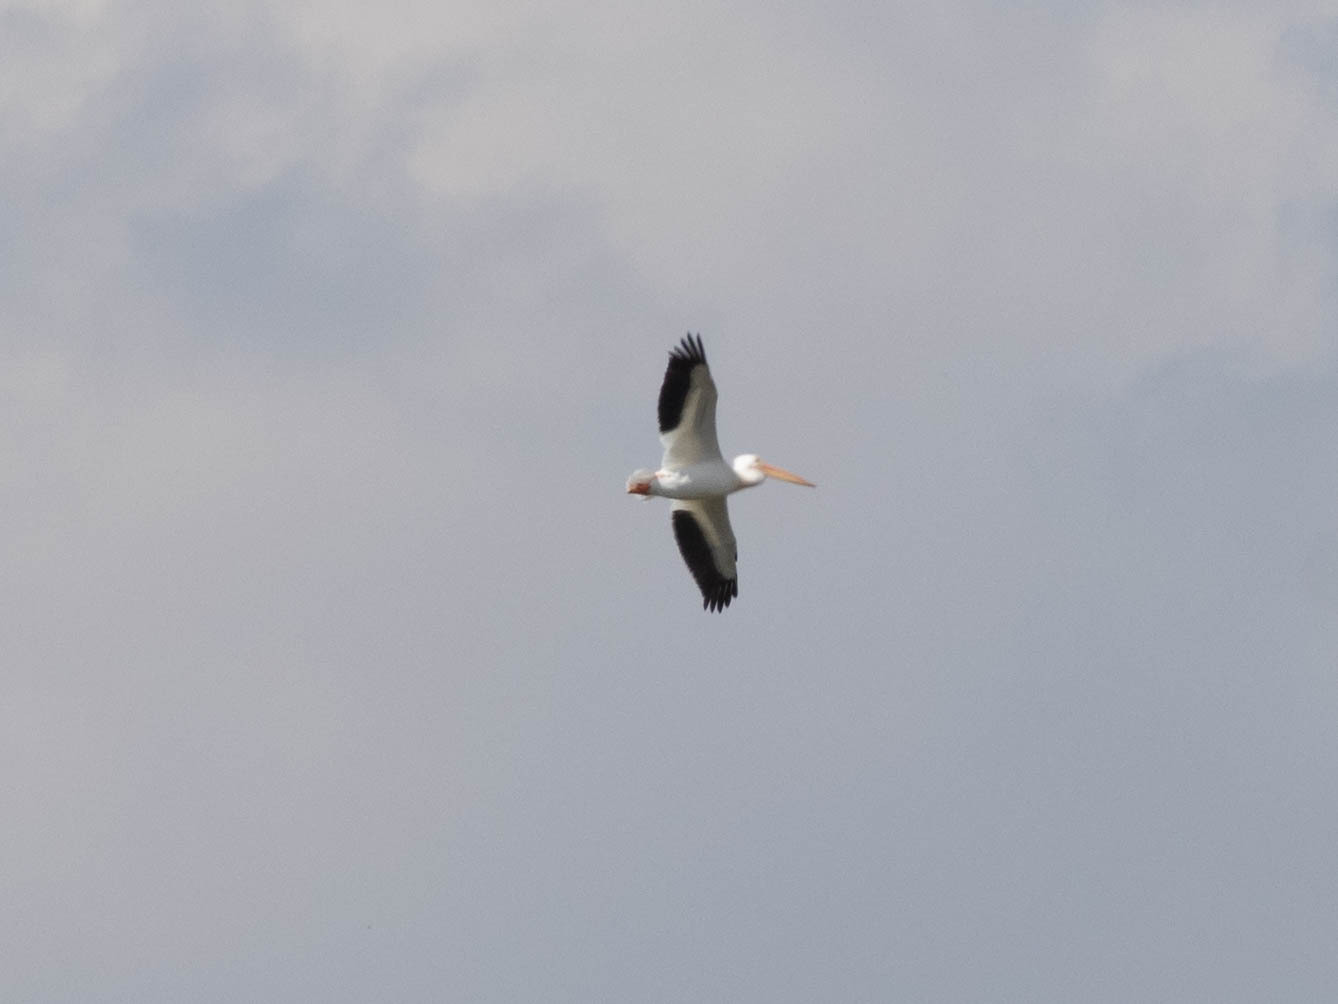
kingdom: Animalia
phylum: Chordata
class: Aves
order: Pelecaniformes
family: Pelecanidae
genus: Pelecanus
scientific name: Pelecanus erythrorhynchos
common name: American white pelican
